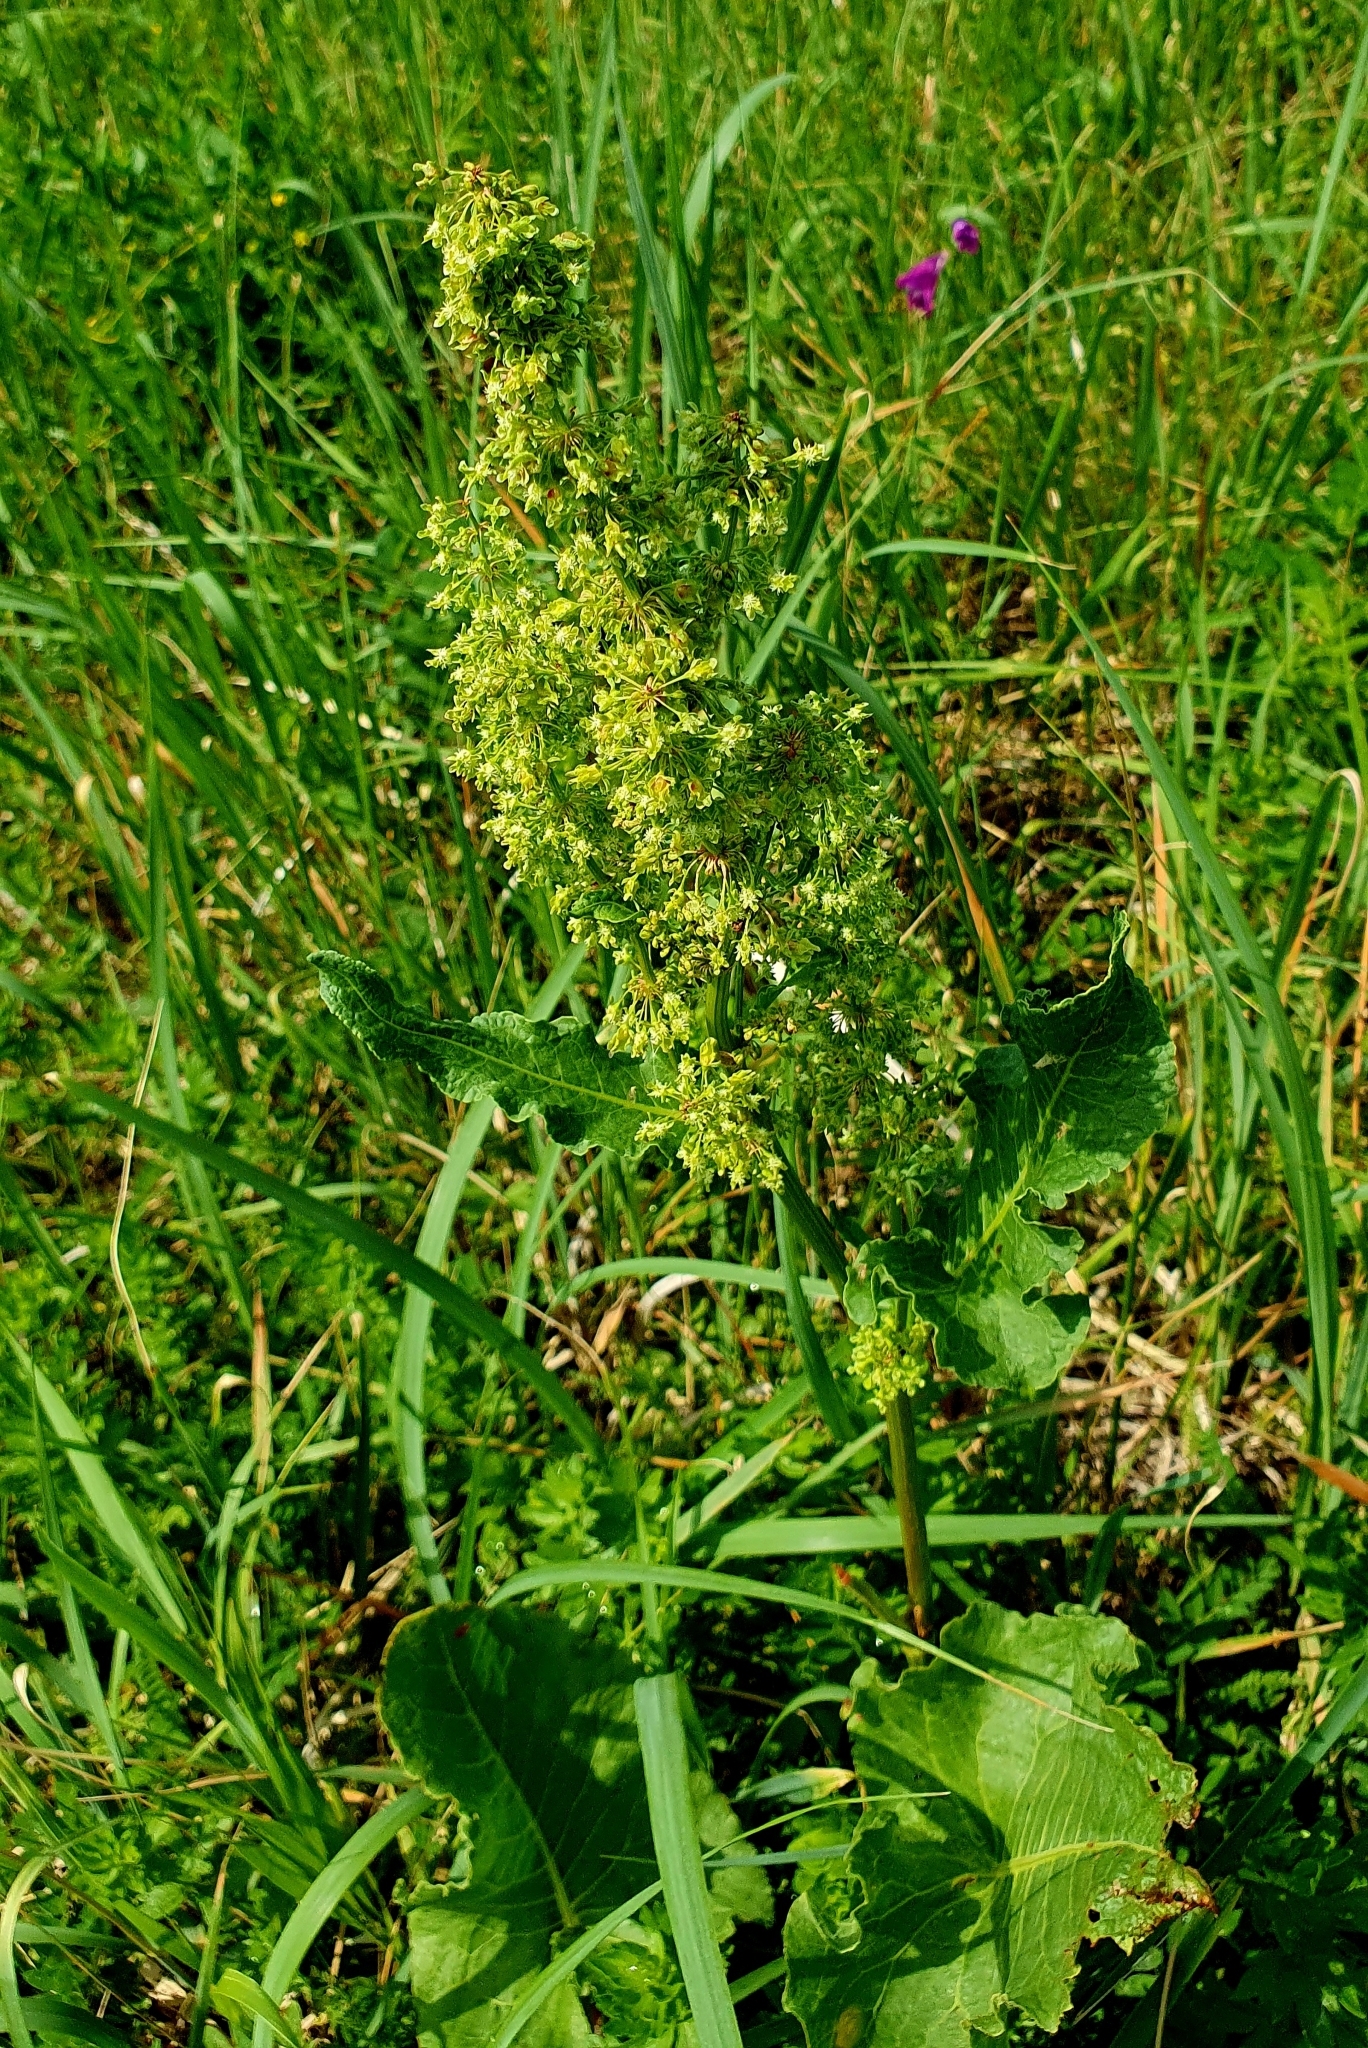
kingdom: Plantae
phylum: Tracheophyta
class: Magnoliopsida
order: Caryophyllales
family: Polygonaceae
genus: Rumex
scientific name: Rumex confertus
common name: Russian dock
